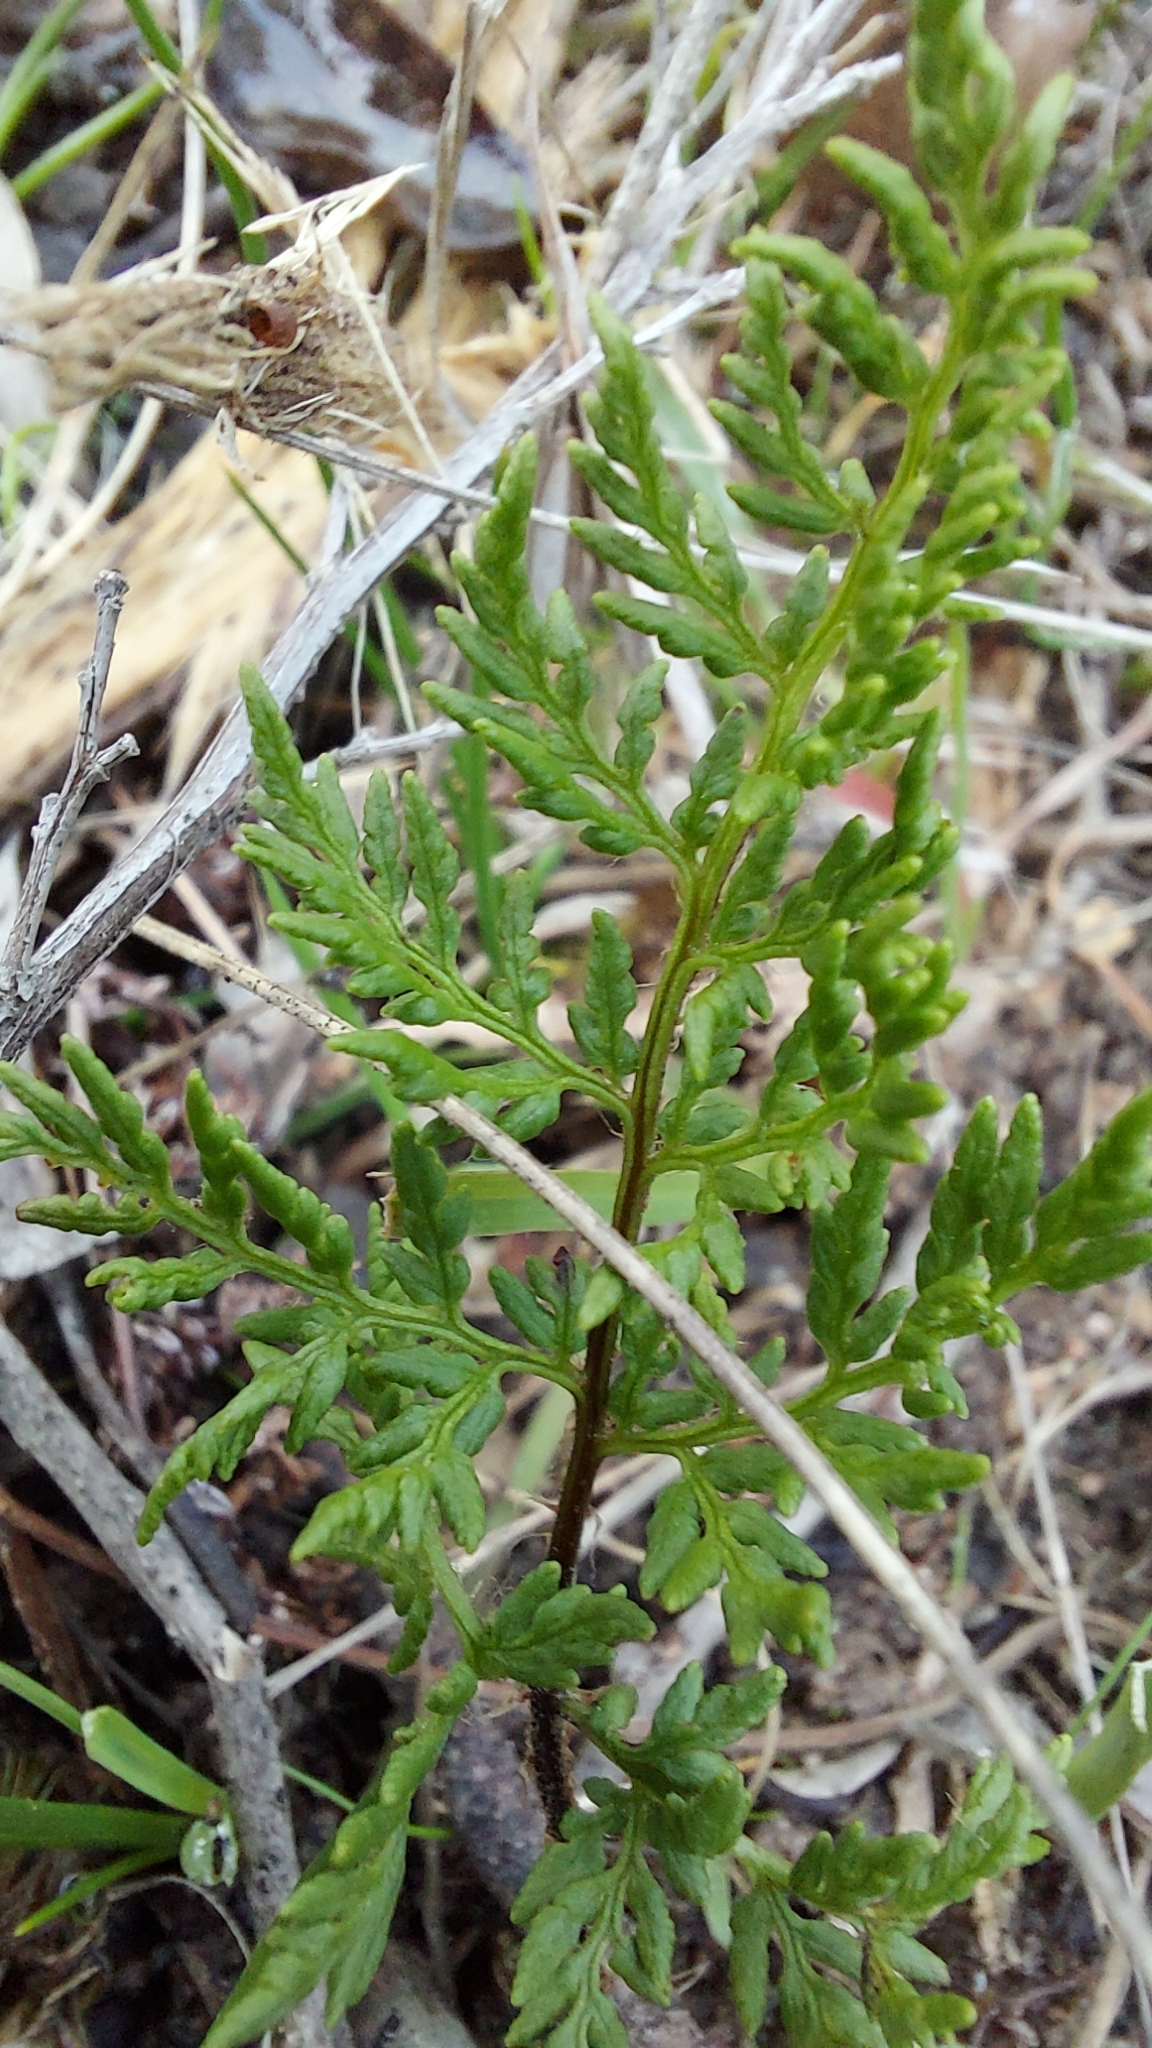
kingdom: Plantae
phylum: Tracheophyta
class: Polypodiopsida
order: Polypodiales
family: Pteridaceae
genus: Cheilanthes
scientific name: Cheilanthes austrotenuifolia
